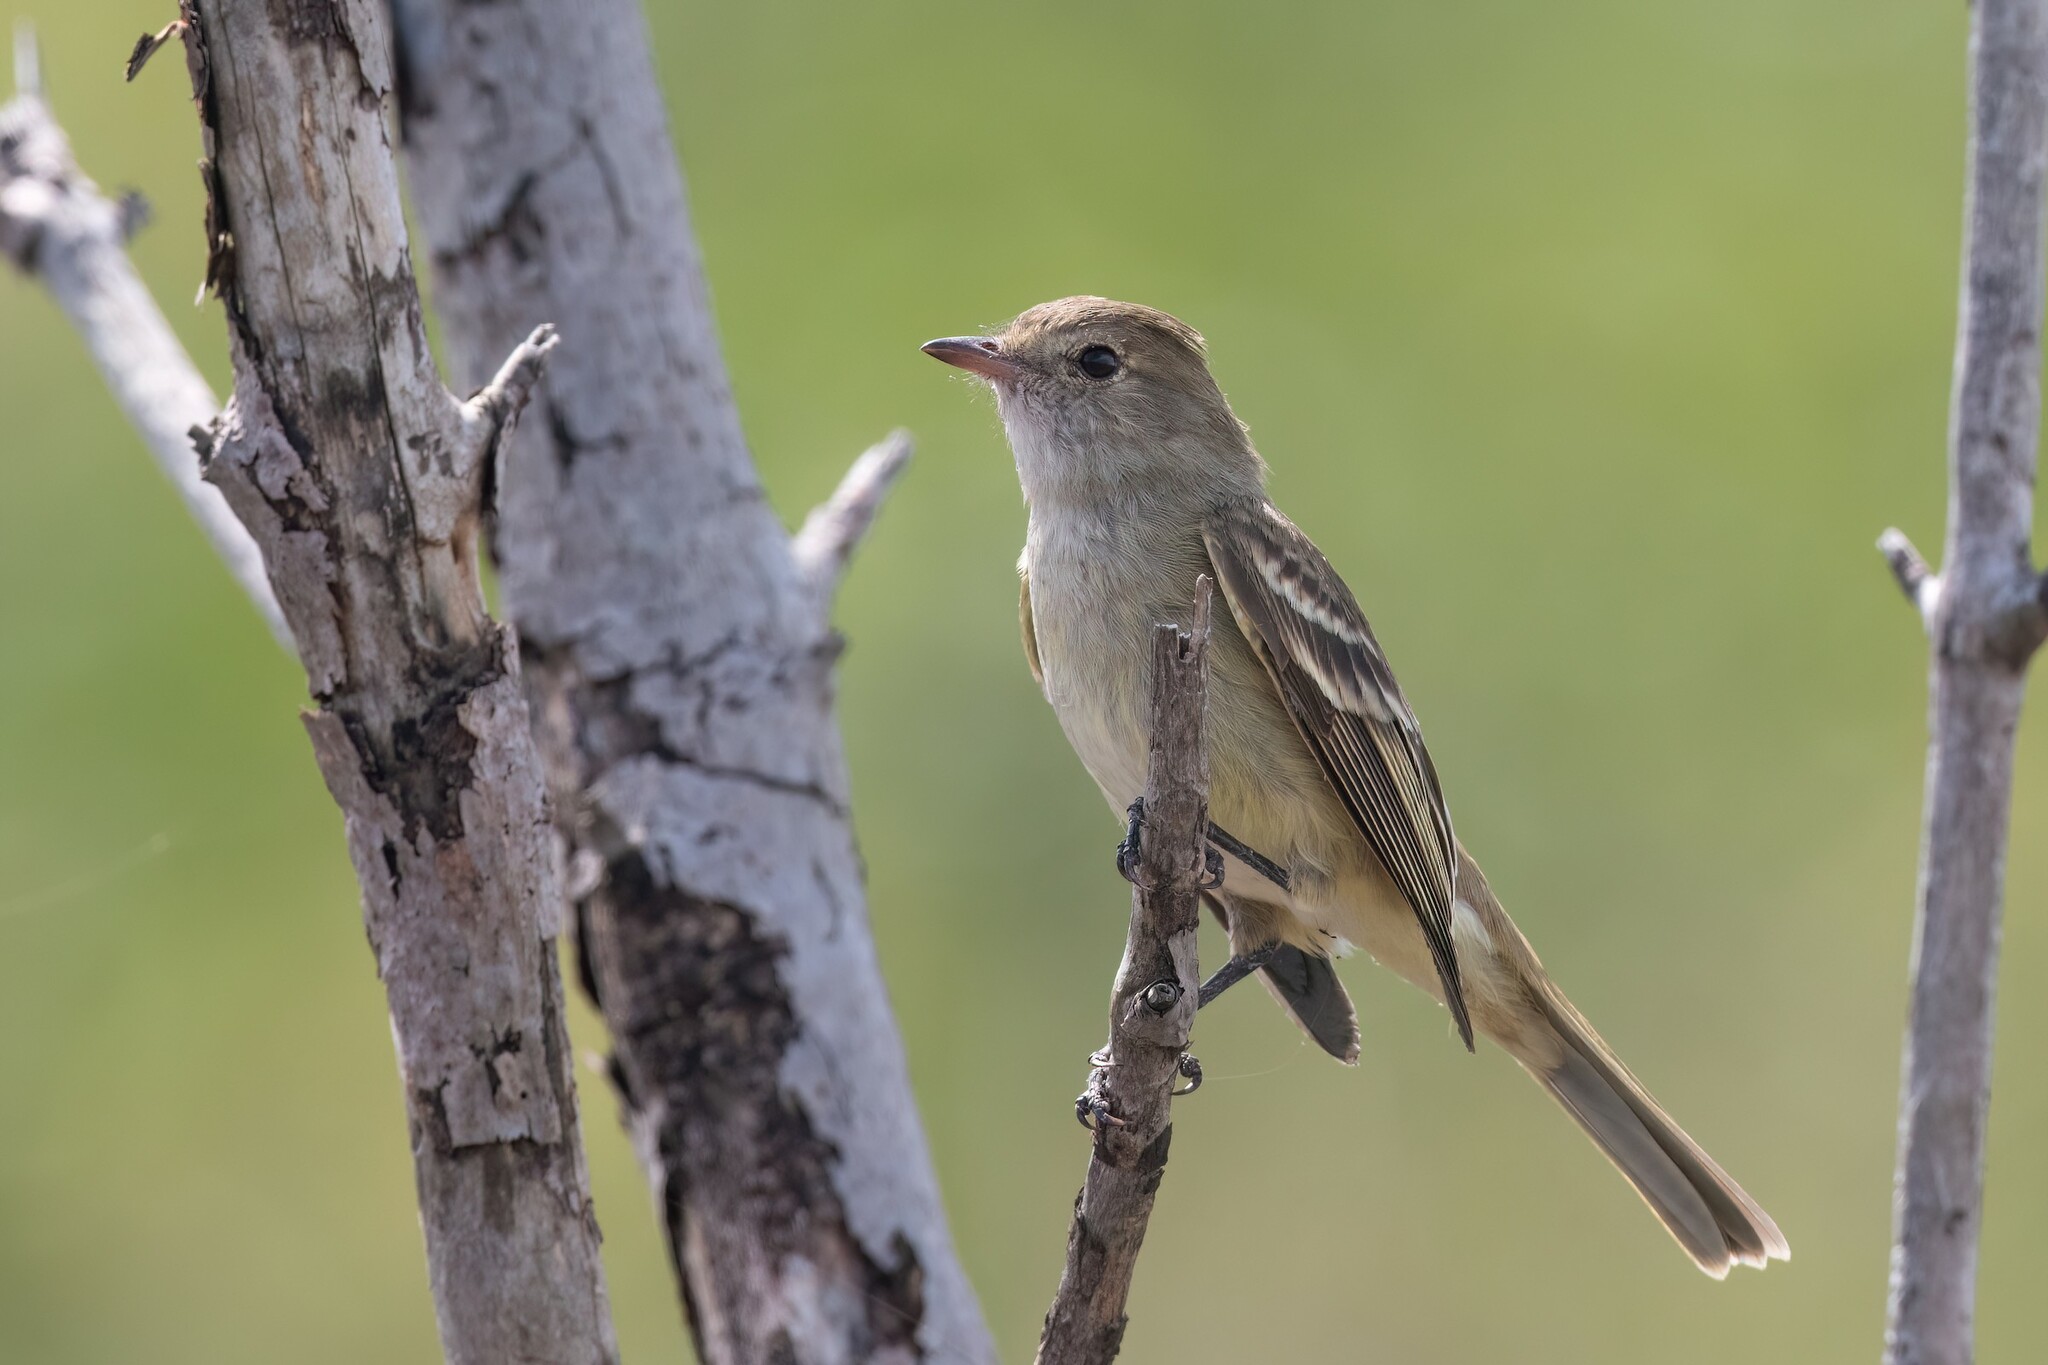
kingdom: Animalia
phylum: Chordata
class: Aves
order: Passeriformes
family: Tyrannidae
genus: Elaenia
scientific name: Elaenia martinica
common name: Caribbean elaenia
